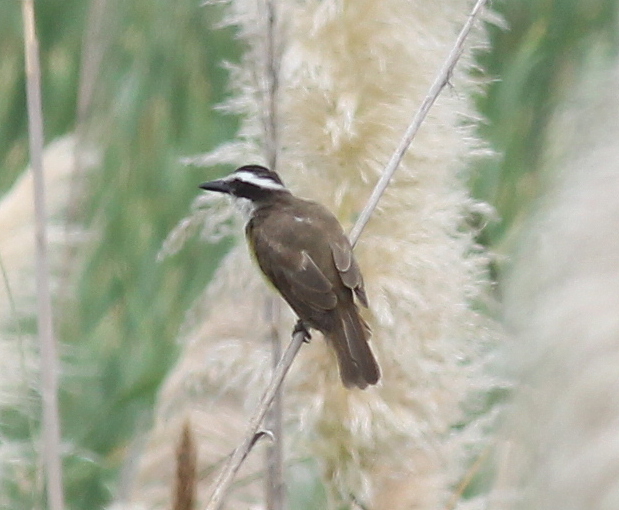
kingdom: Animalia
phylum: Chordata
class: Aves
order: Passeriformes
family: Tyrannidae
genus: Pitangus
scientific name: Pitangus sulphuratus
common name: Great kiskadee
